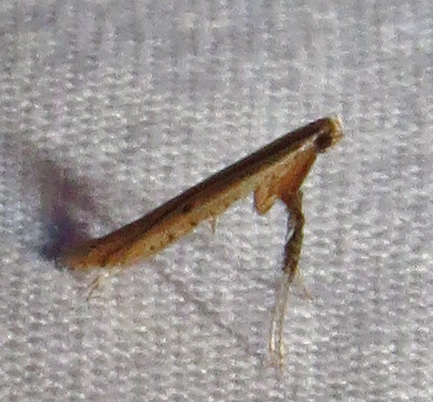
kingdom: Animalia
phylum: Arthropoda
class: Insecta
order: Lepidoptera
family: Gracillariidae
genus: Caloptilia
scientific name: Caloptilia sassafrasella
